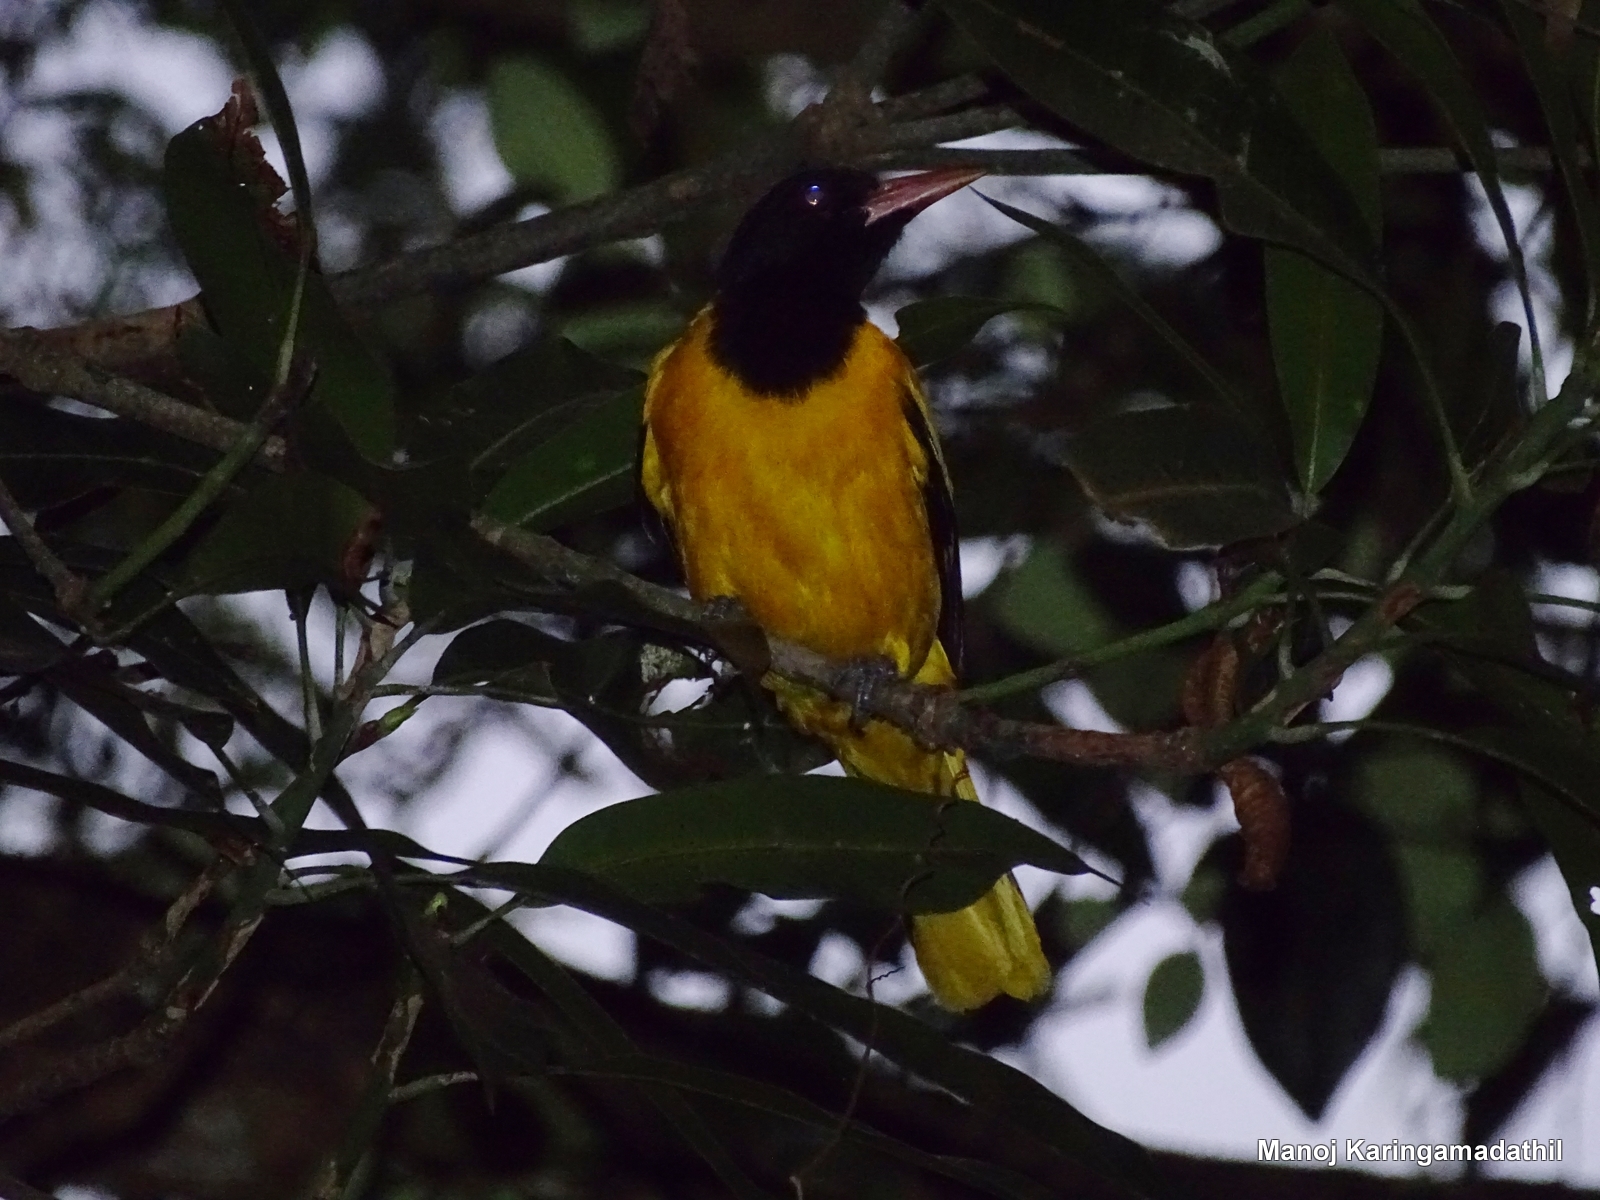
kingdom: Animalia
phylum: Chordata
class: Aves
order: Passeriformes
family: Oriolidae
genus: Oriolus
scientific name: Oriolus xanthornus
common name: Black-hooded oriole
